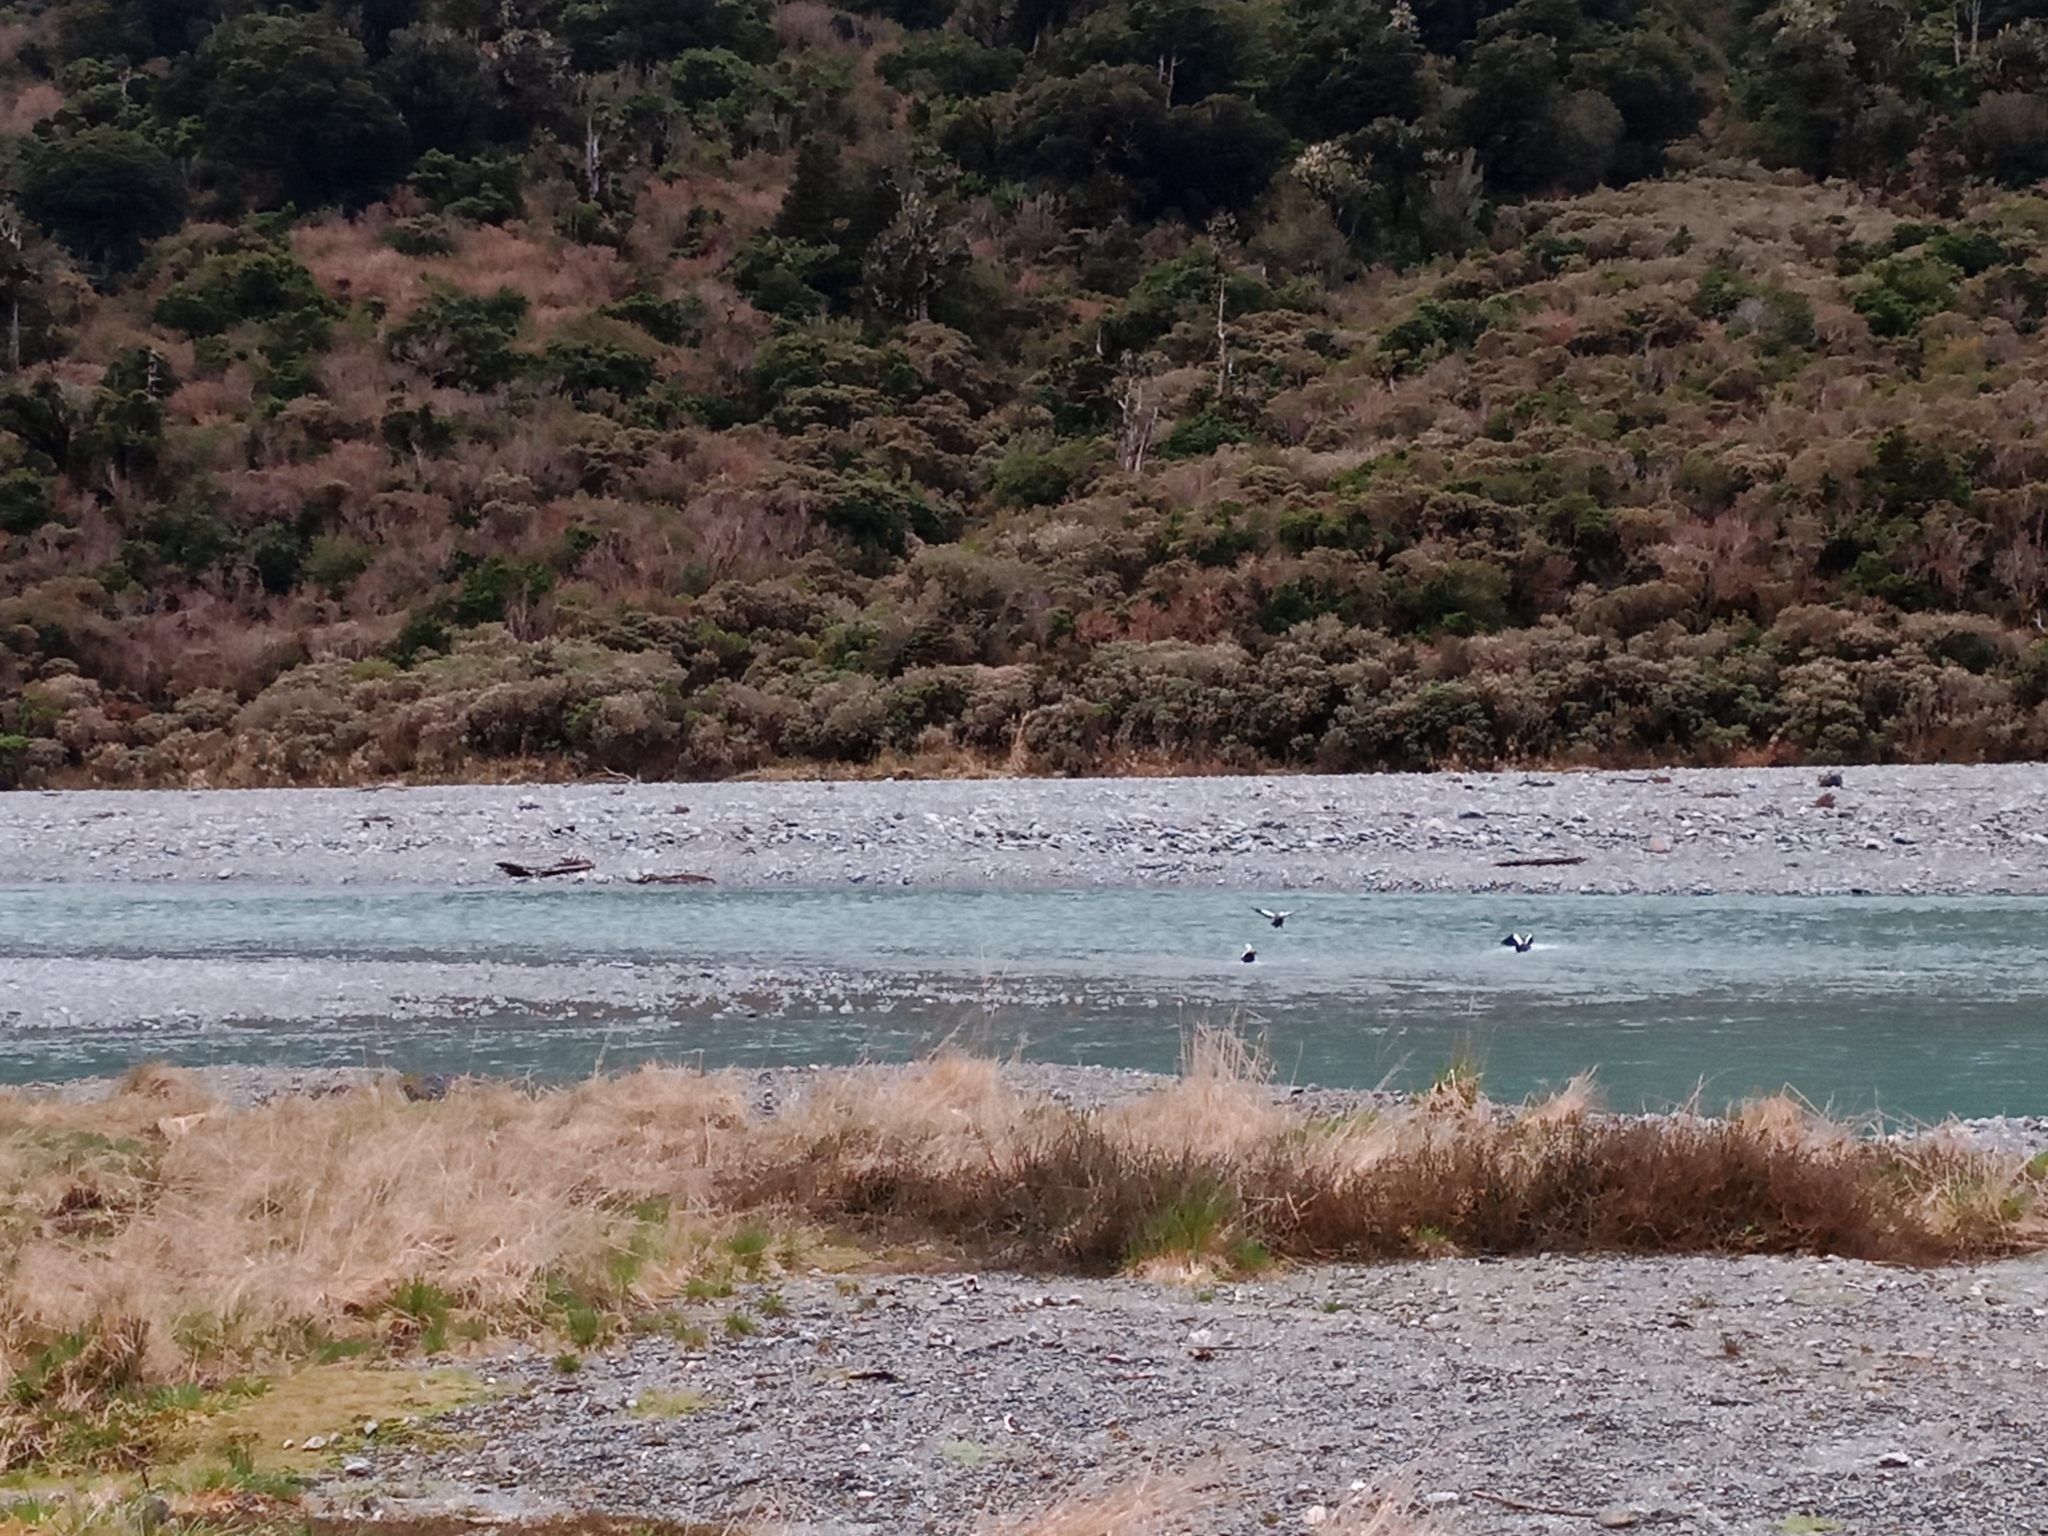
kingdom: Animalia
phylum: Chordata
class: Aves
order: Anseriformes
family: Anatidae
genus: Tadorna
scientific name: Tadorna variegata
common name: Paradise shelduck
